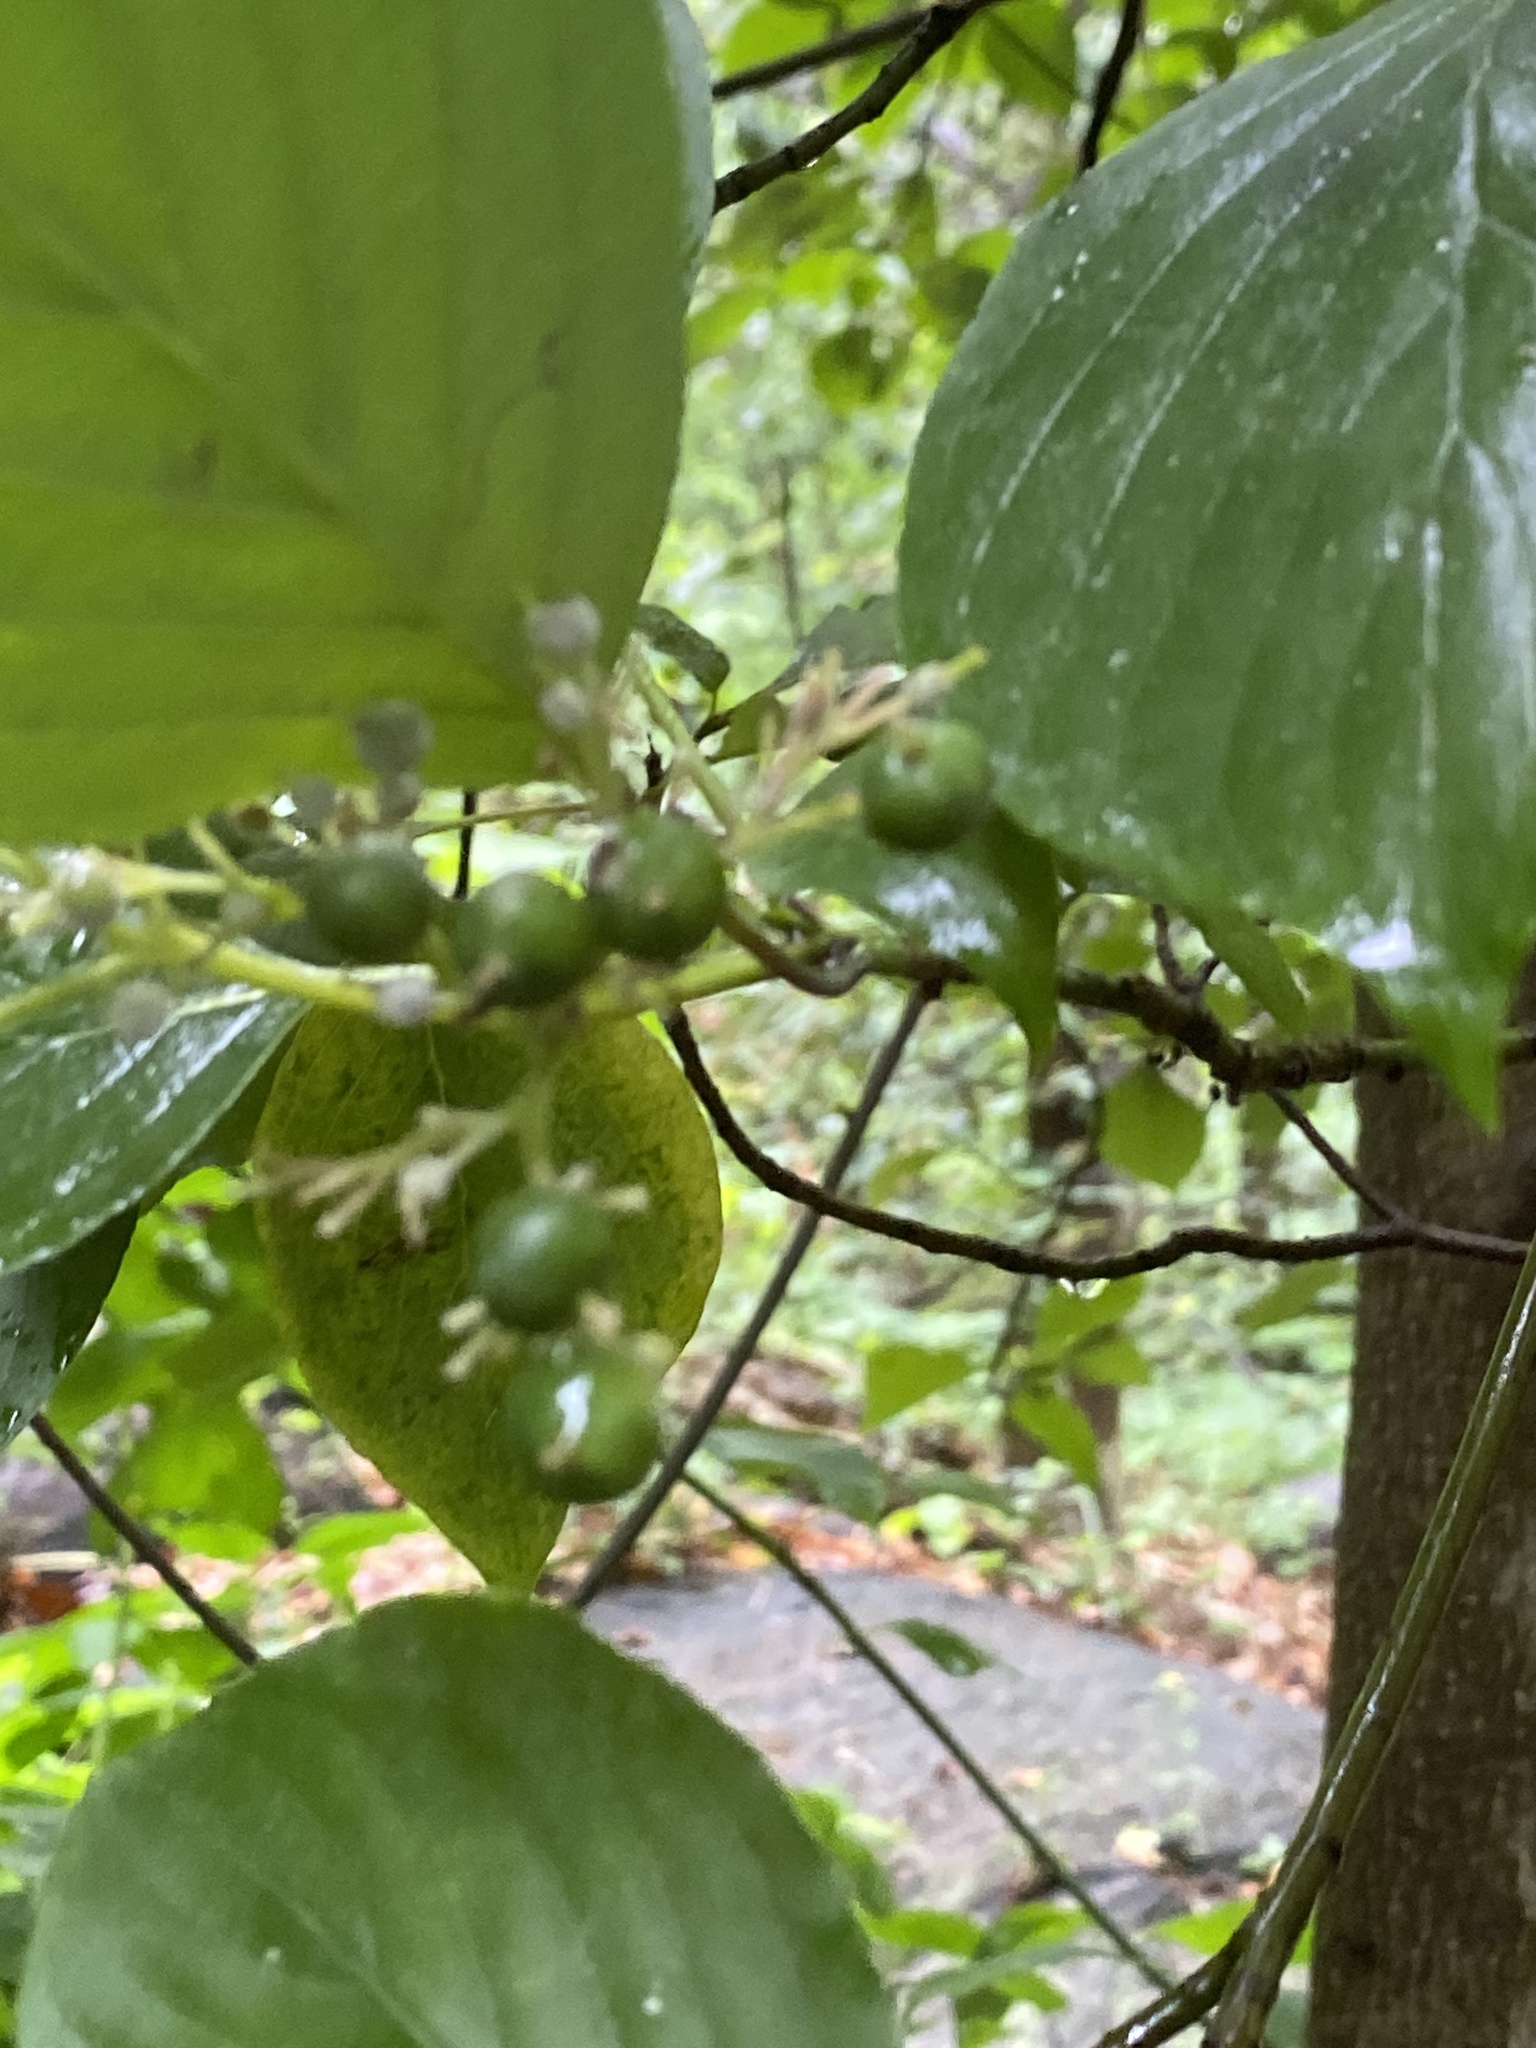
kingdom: Plantae
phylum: Tracheophyta
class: Magnoliopsida
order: Cornales
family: Cornaceae
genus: Cornus
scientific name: Cornus alternifolia
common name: Pagoda dogwood
